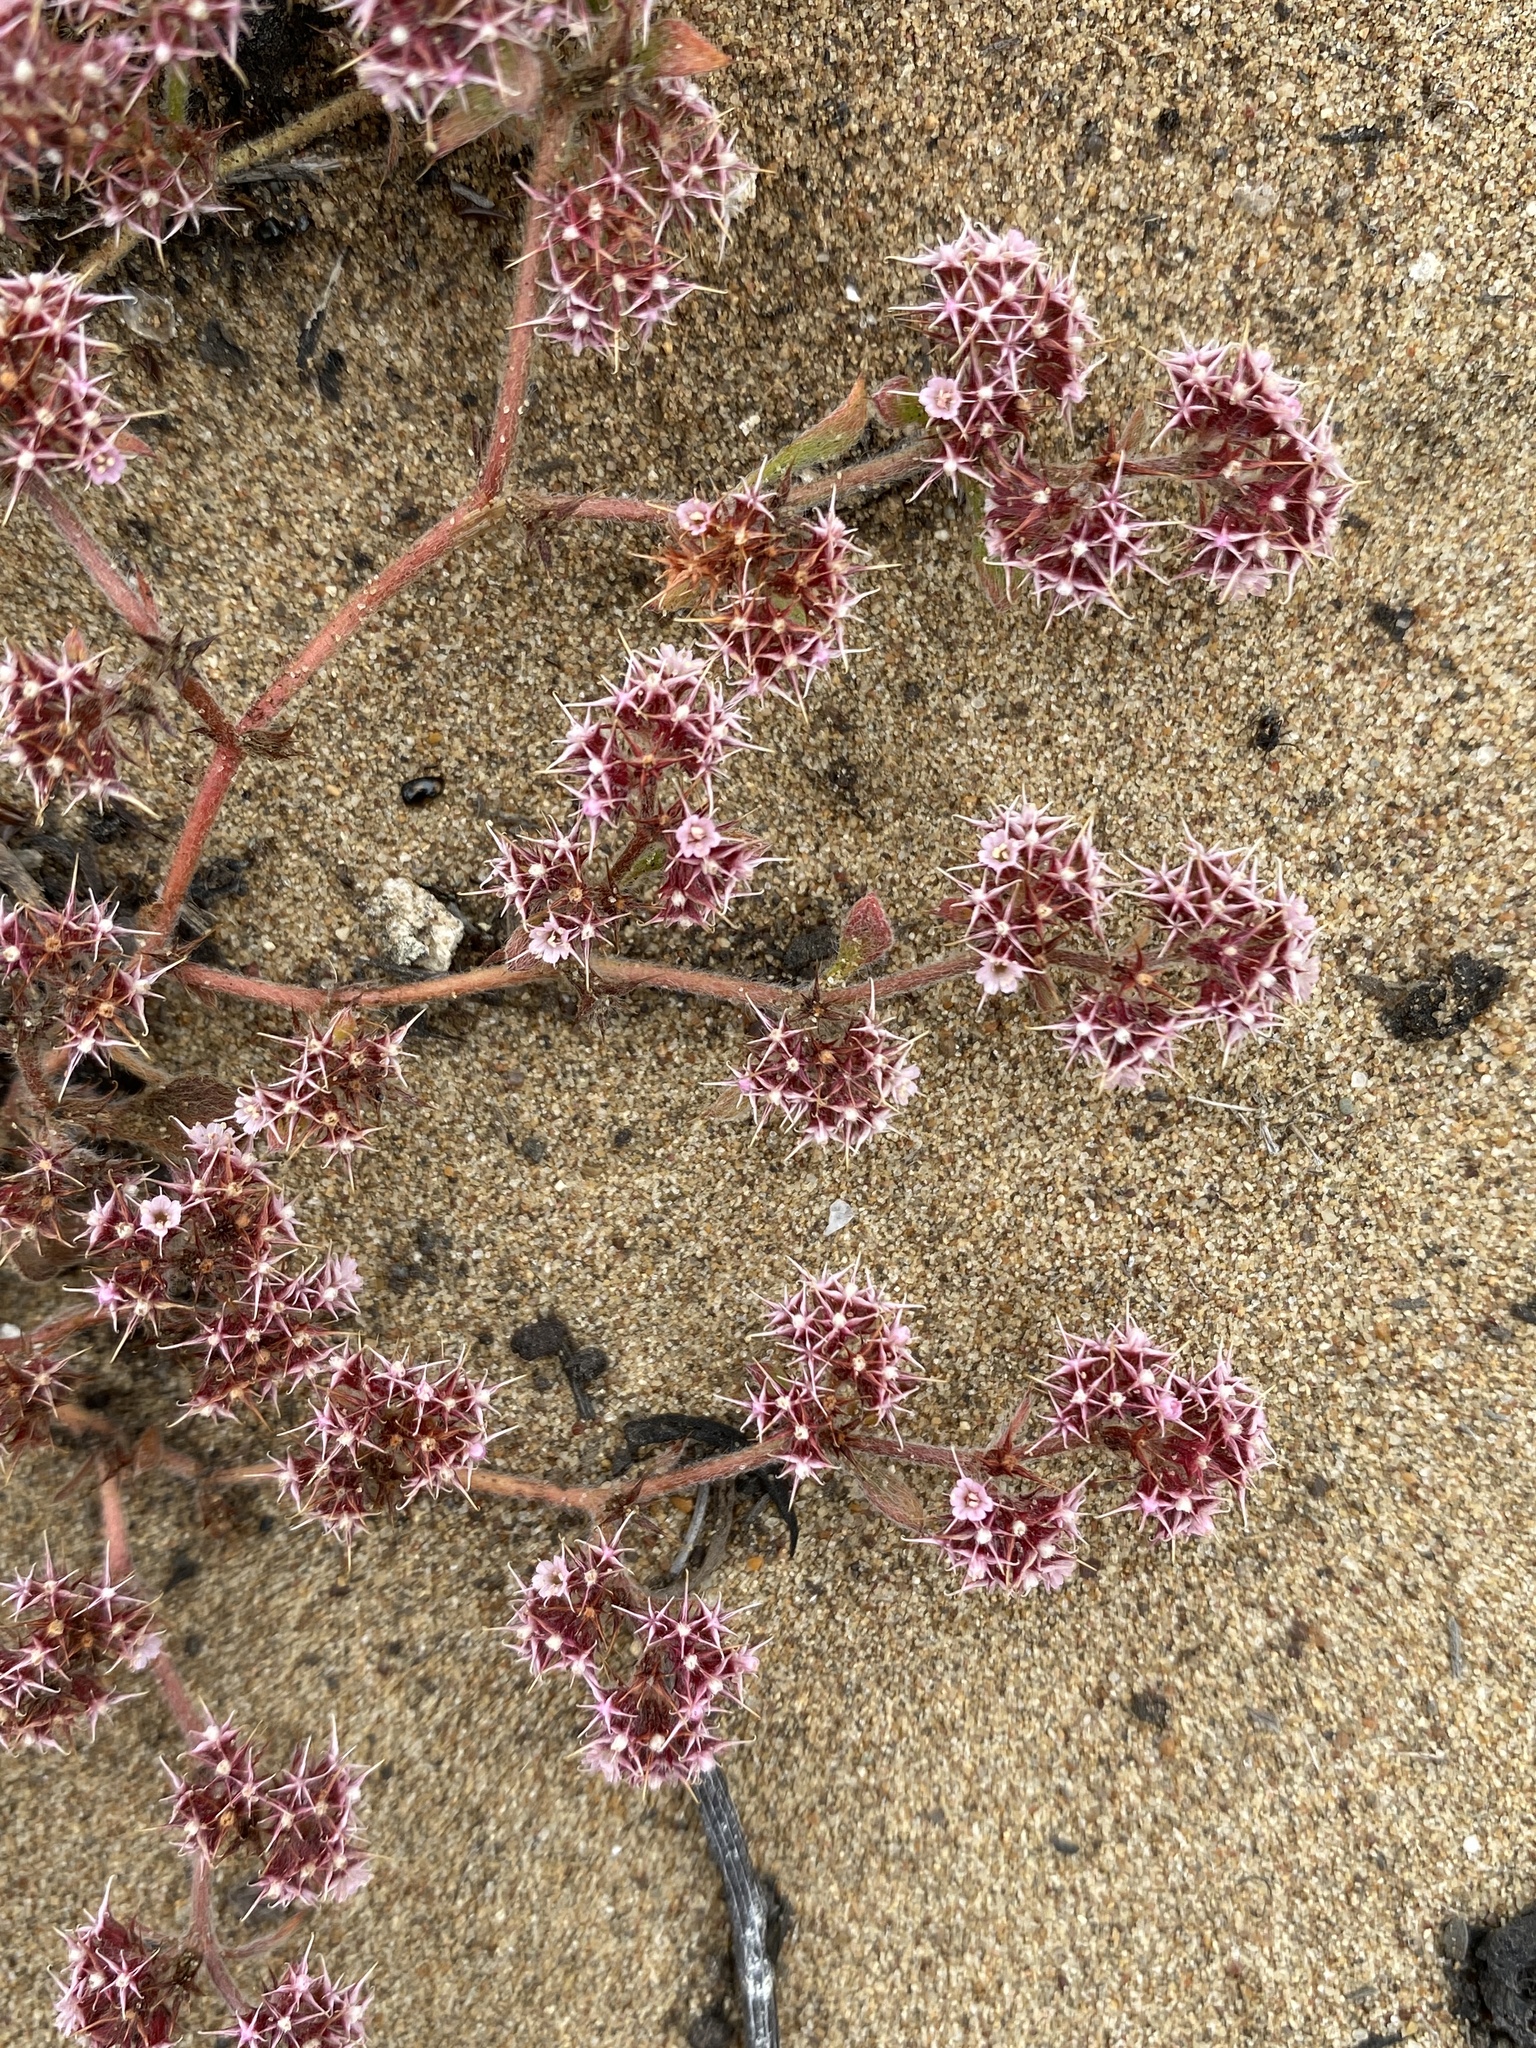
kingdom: Plantae
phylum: Tracheophyta
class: Magnoliopsida
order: Caryophyllales
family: Polygonaceae
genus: Chorizanthe
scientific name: Chorizanthe eastwoodiae
